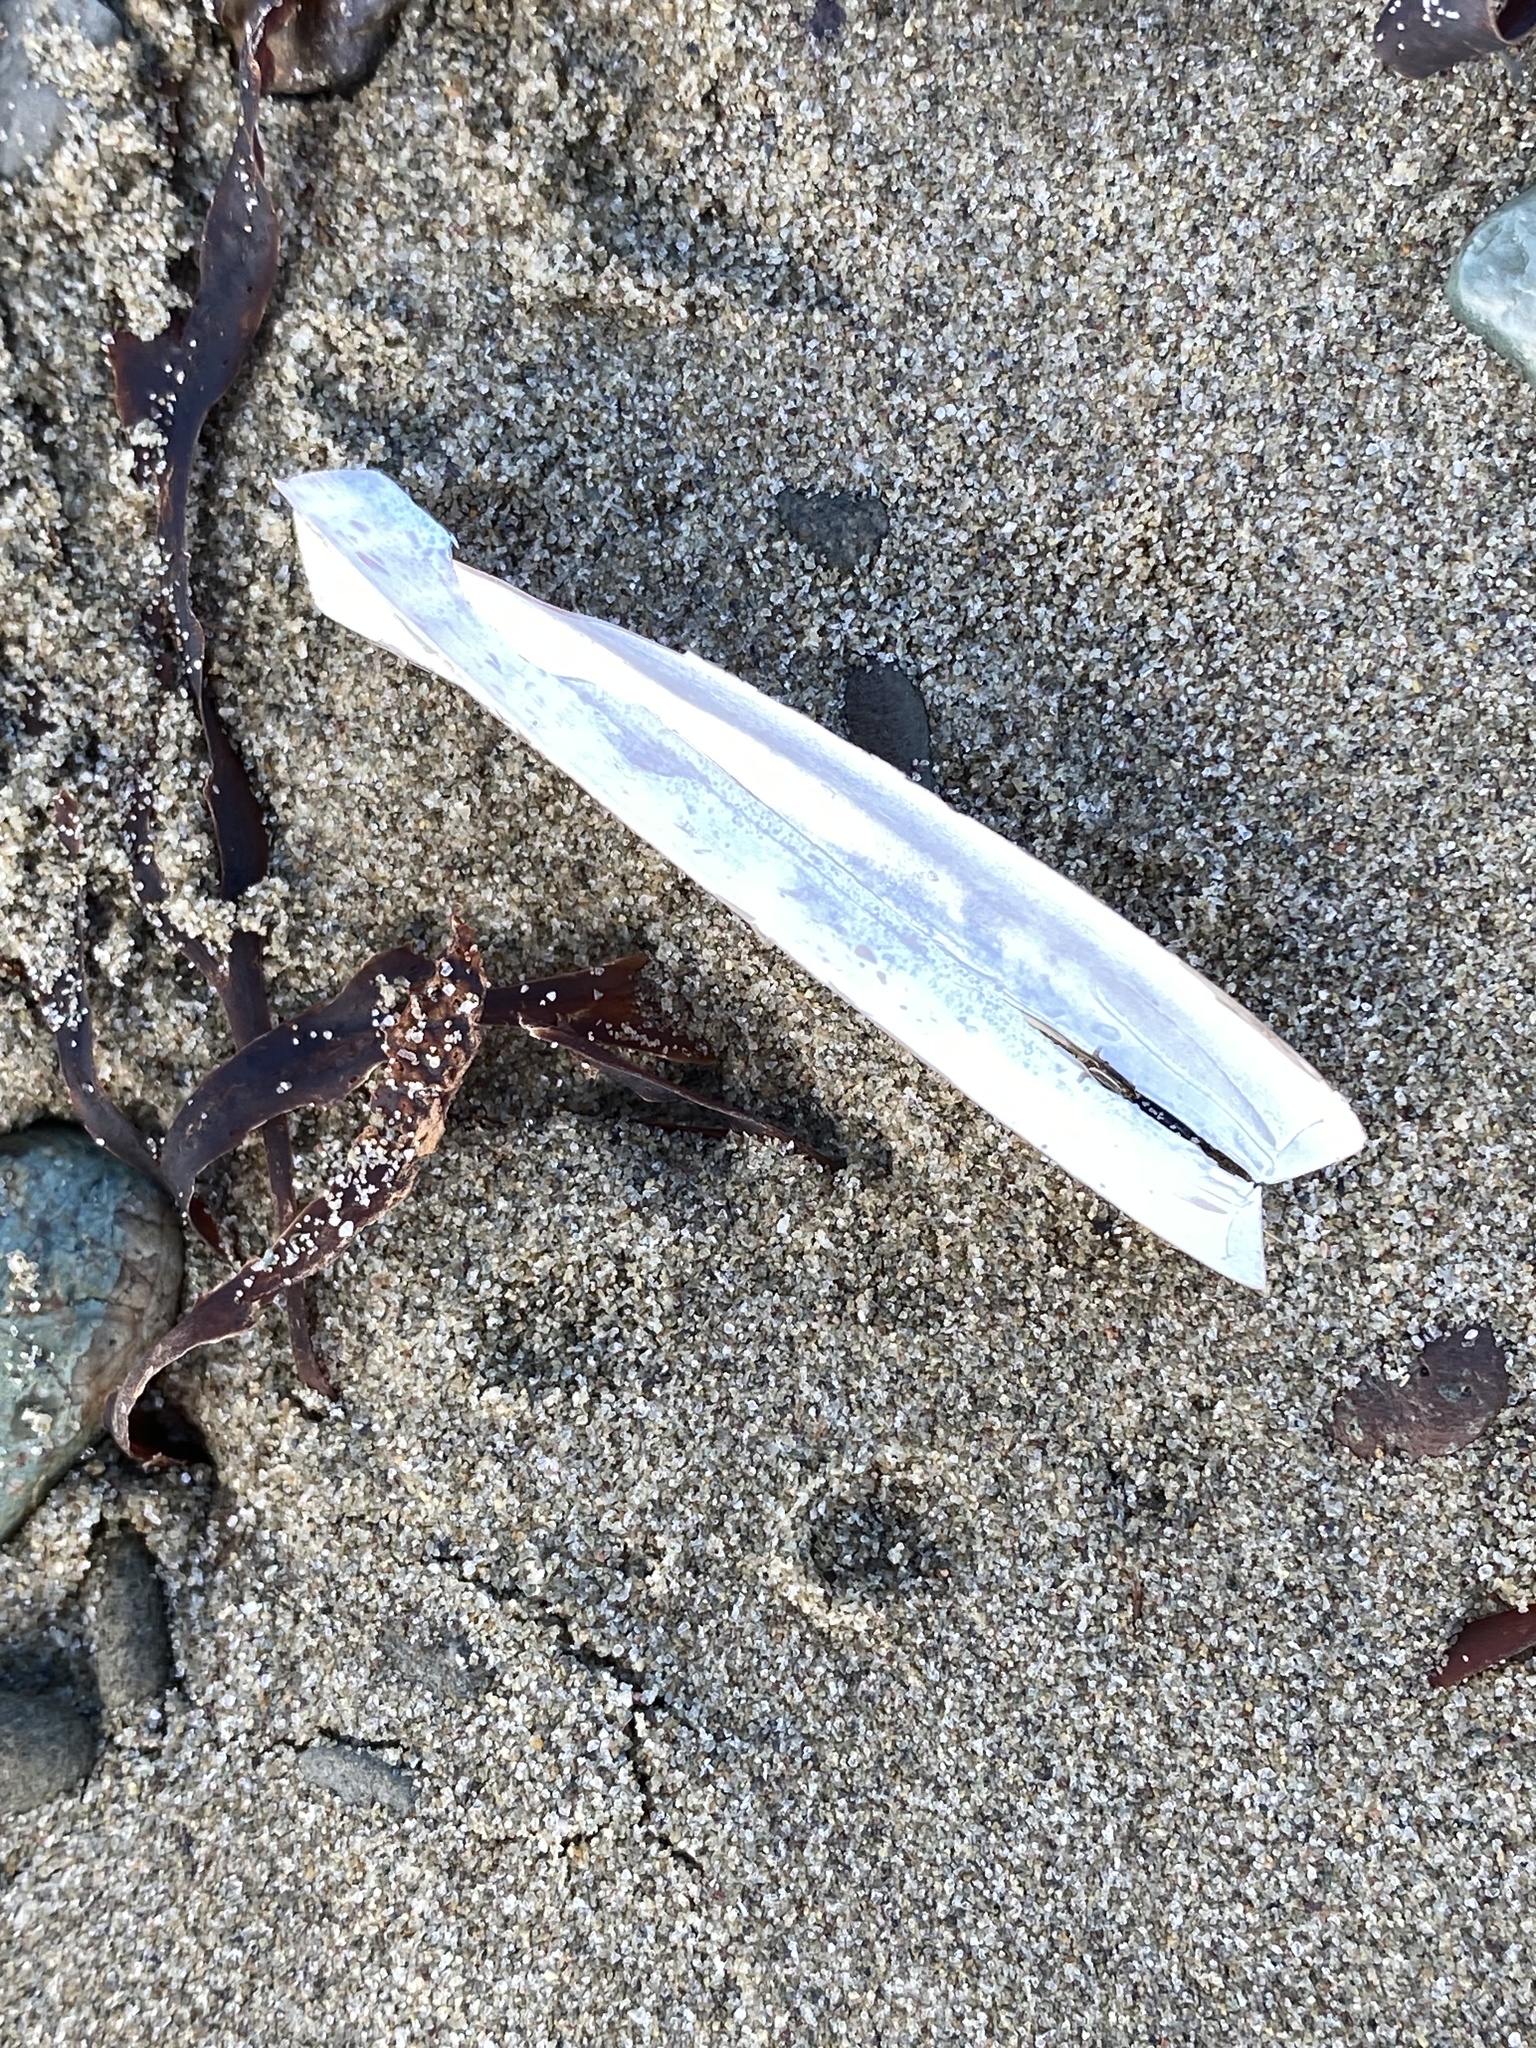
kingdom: Animalia
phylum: Mollusca
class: Bivalvia
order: Adapedonta
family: Pharidae
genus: Ensis
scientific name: Ensis leei
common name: American jack knife clam
